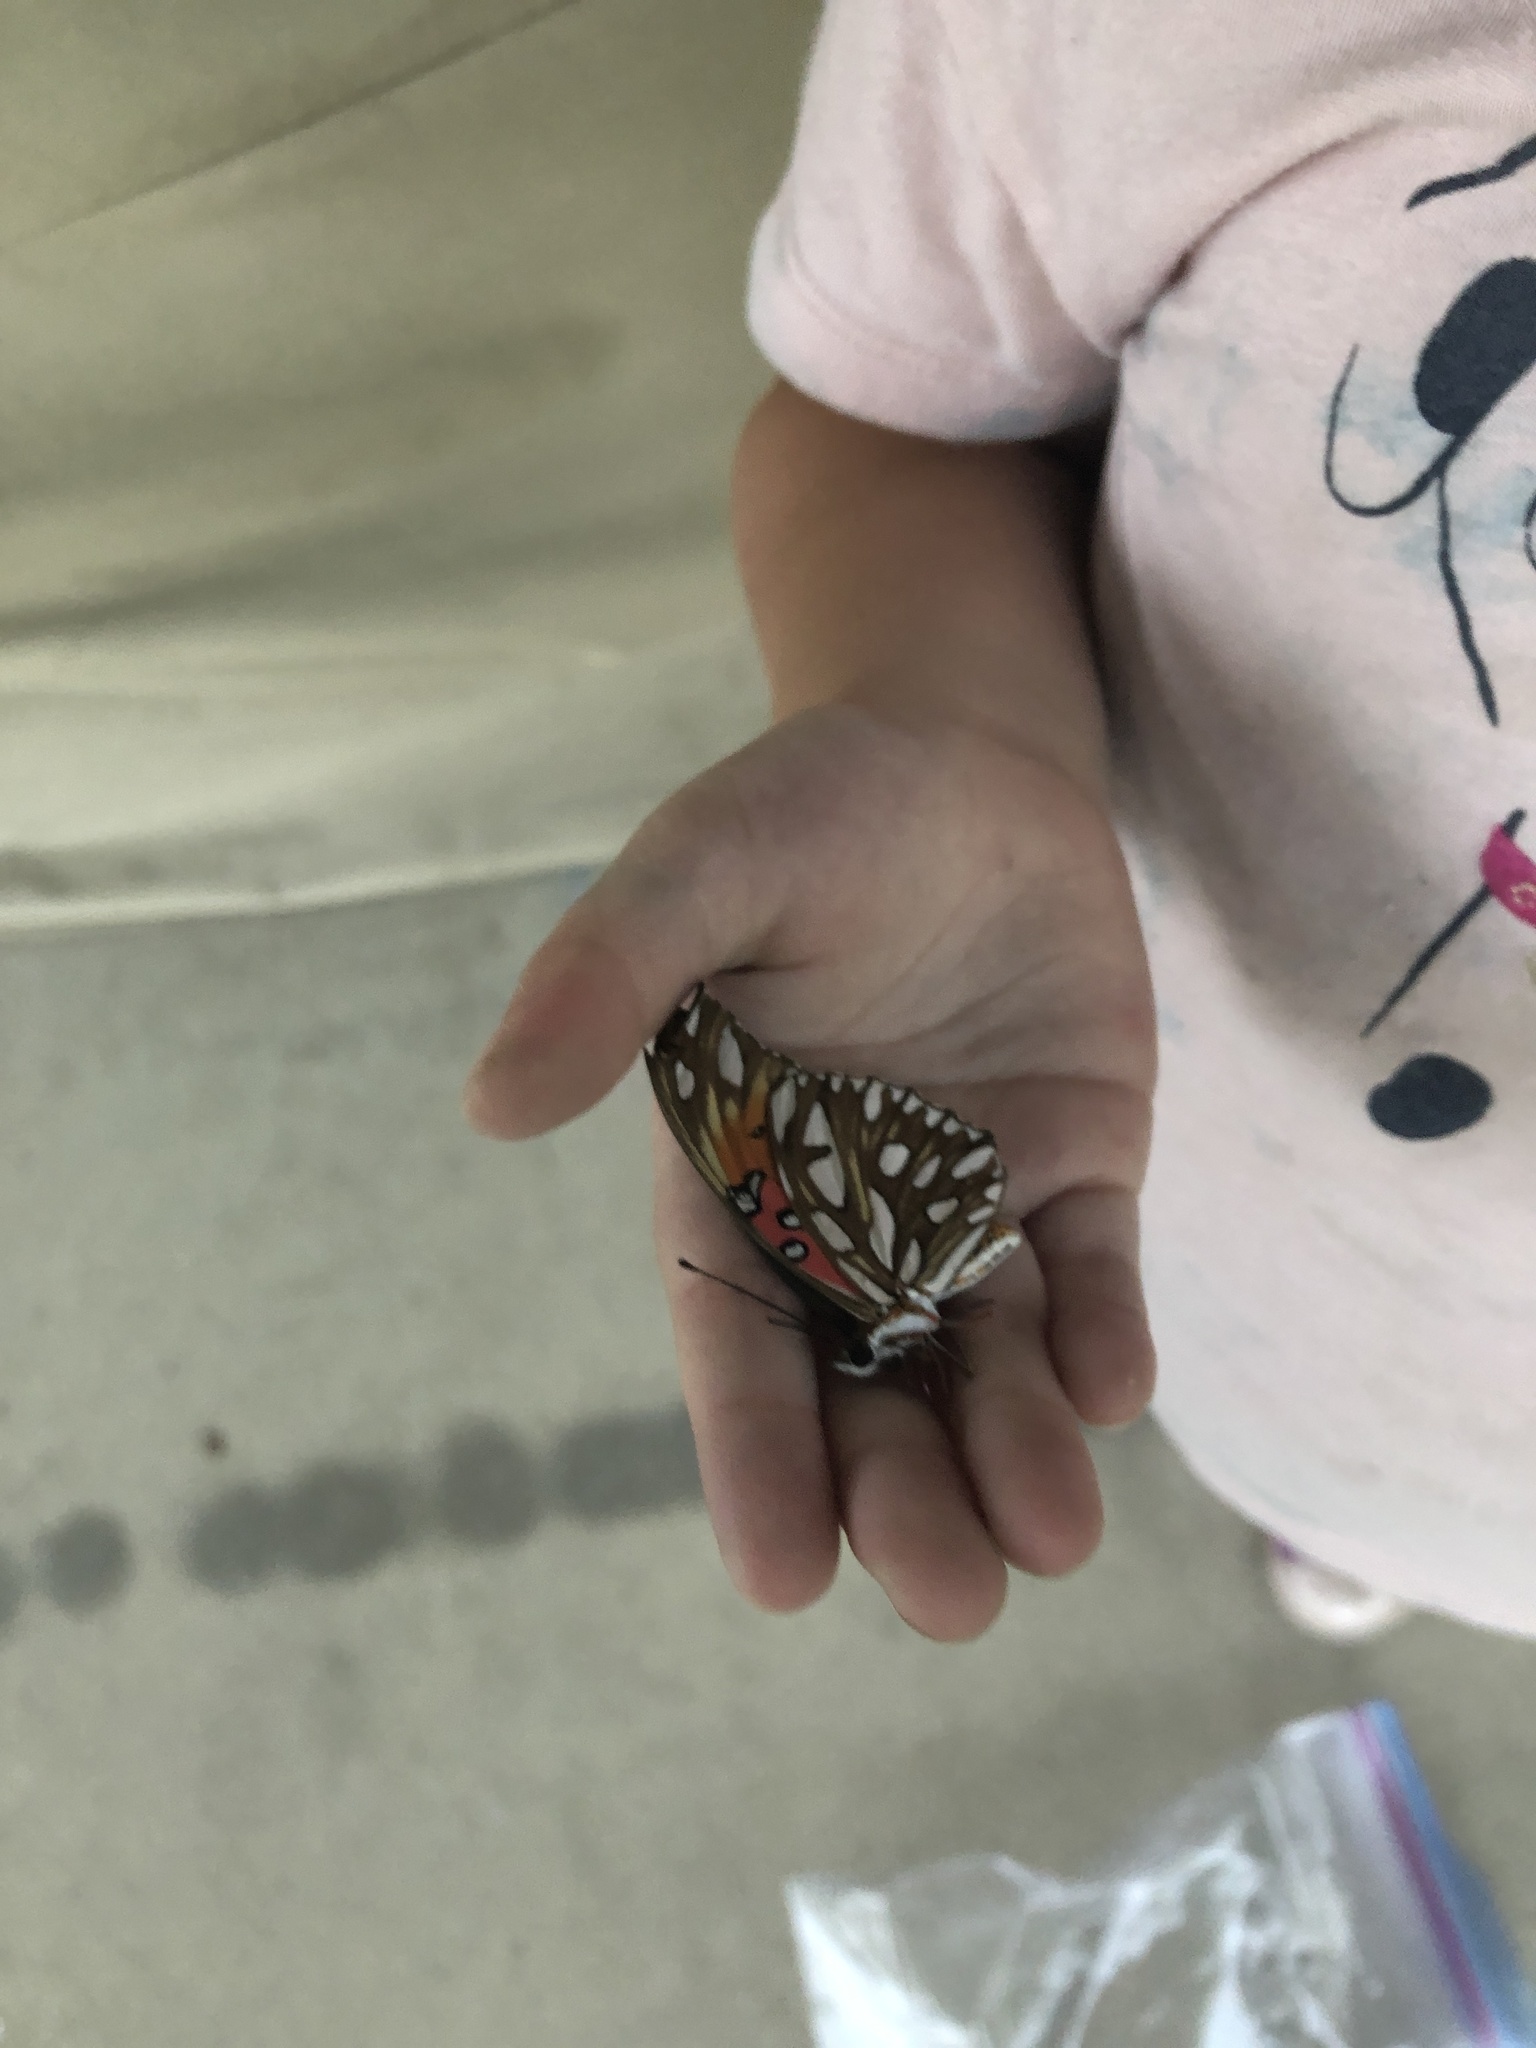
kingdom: Animalia
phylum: Arthropoda
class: Insecta
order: Lepidoptera
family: Nymphalidae
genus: Dione
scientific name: Dione vanillae
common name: Gulf fritillary
